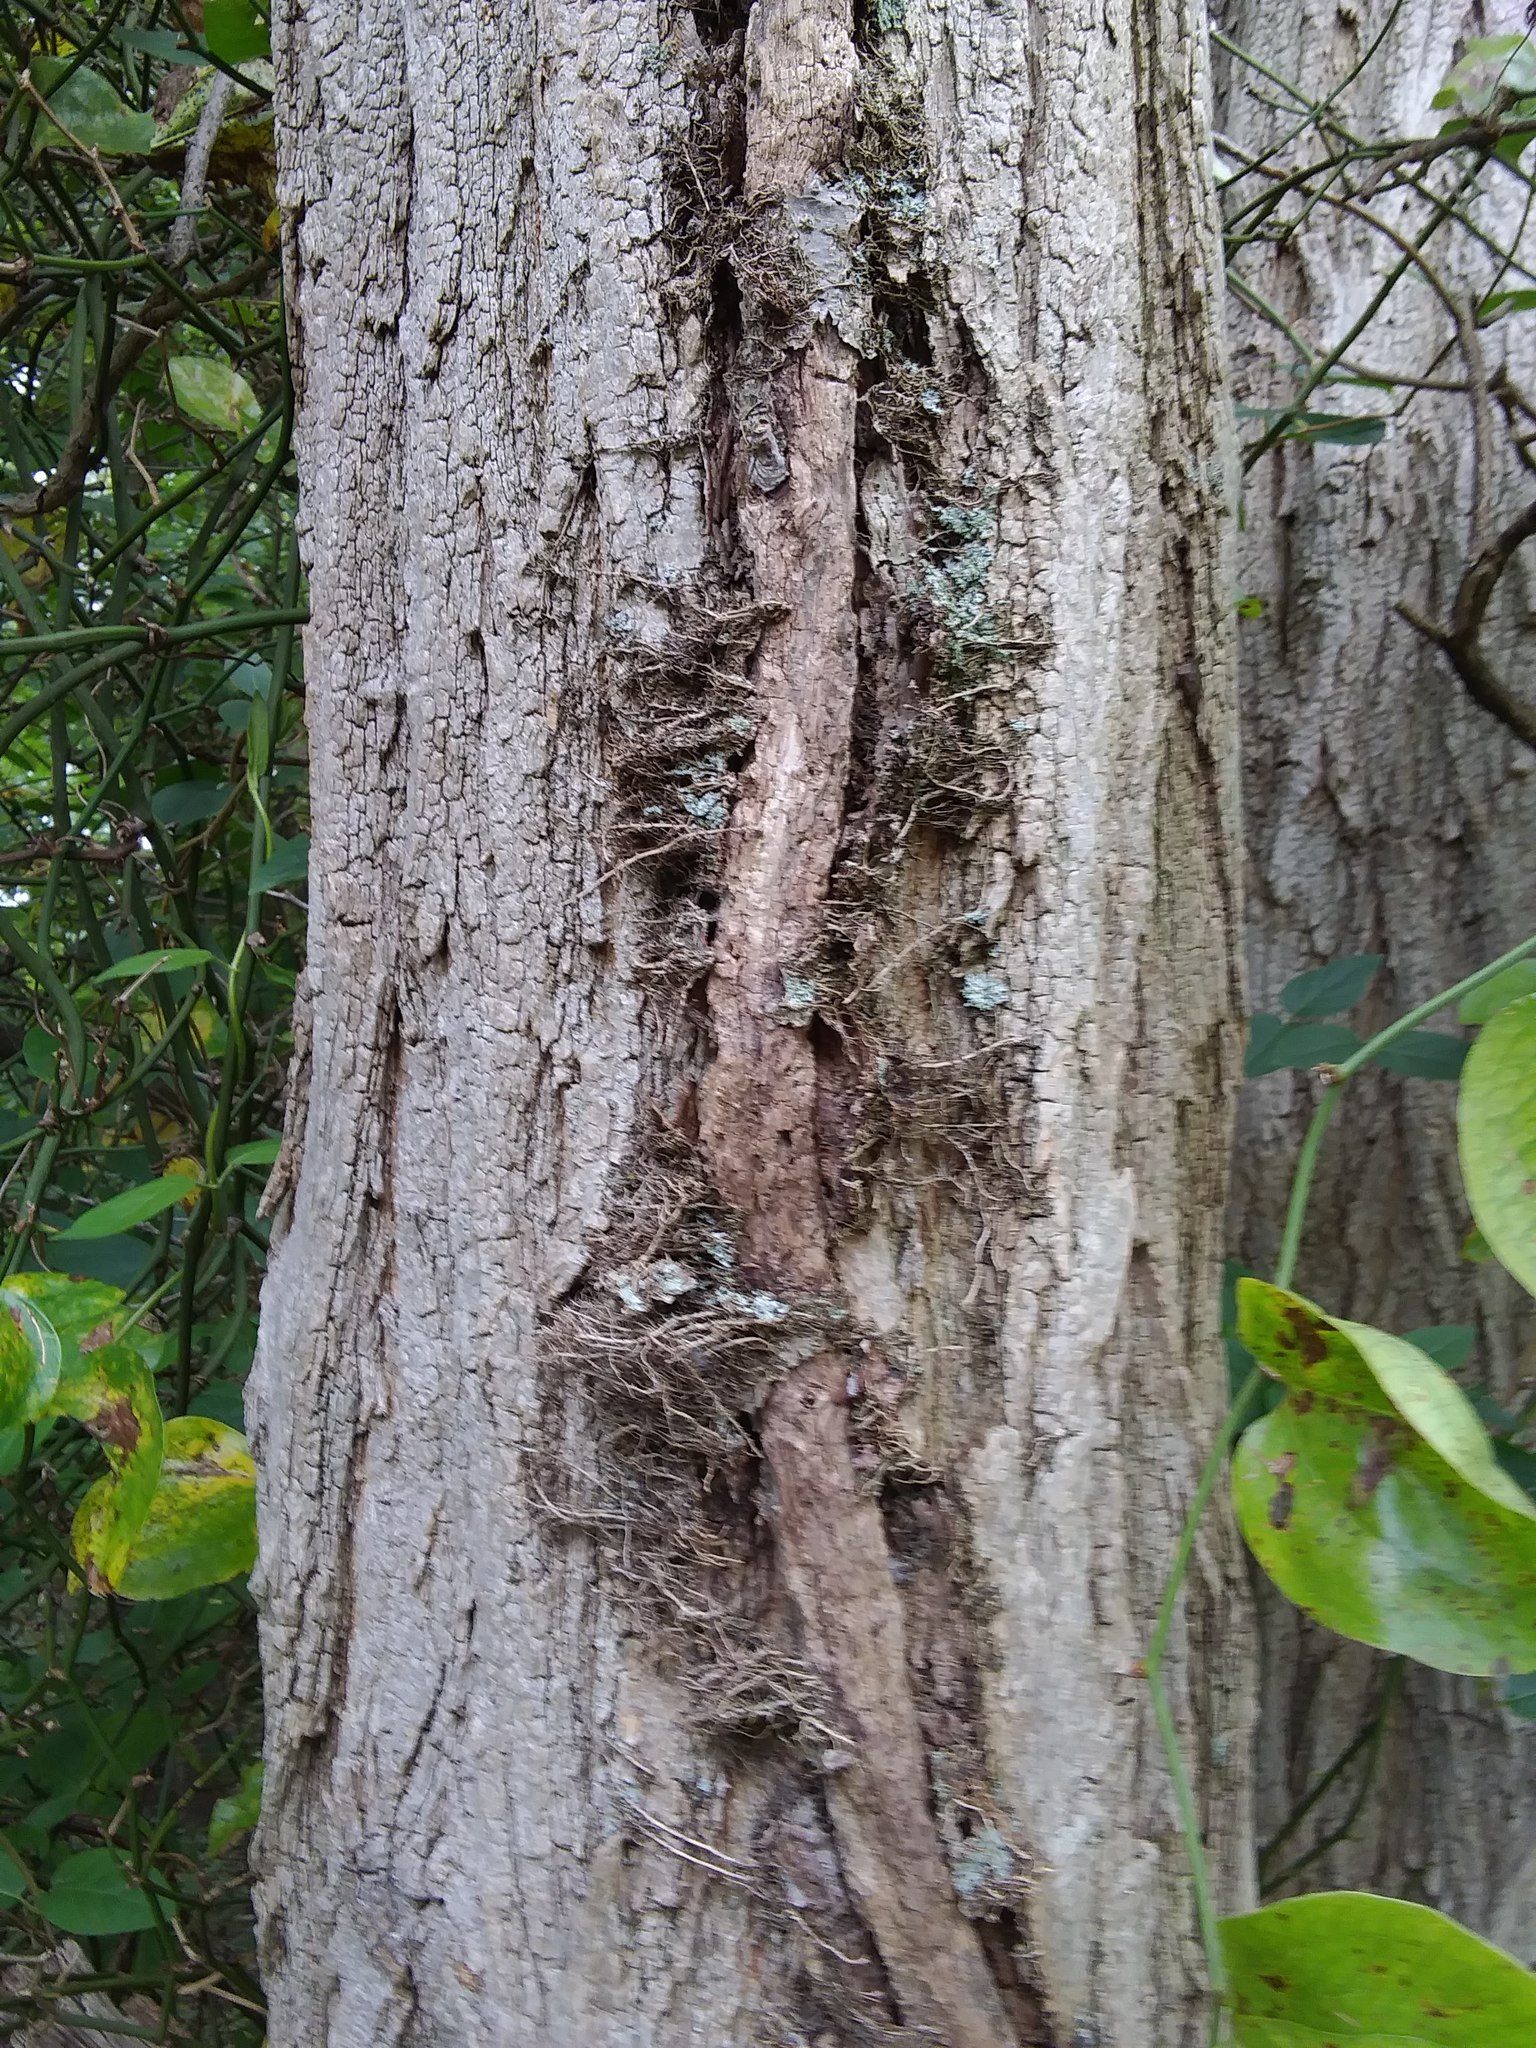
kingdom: Plantae
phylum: Tracheophyta
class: Magnoliopsida
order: Sapindales
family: Anacardiaceae
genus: Toxicodendron
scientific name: Toxicodendron radicans
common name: Poison ivy
